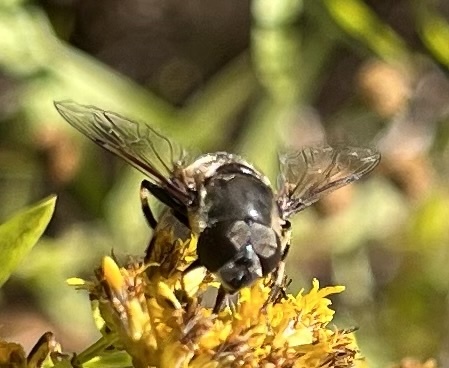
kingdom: Animalia
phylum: Arthropoda
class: Insecta
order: Diptera
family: Syrphidae
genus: Eristalis
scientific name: Eristalis dimidiata
